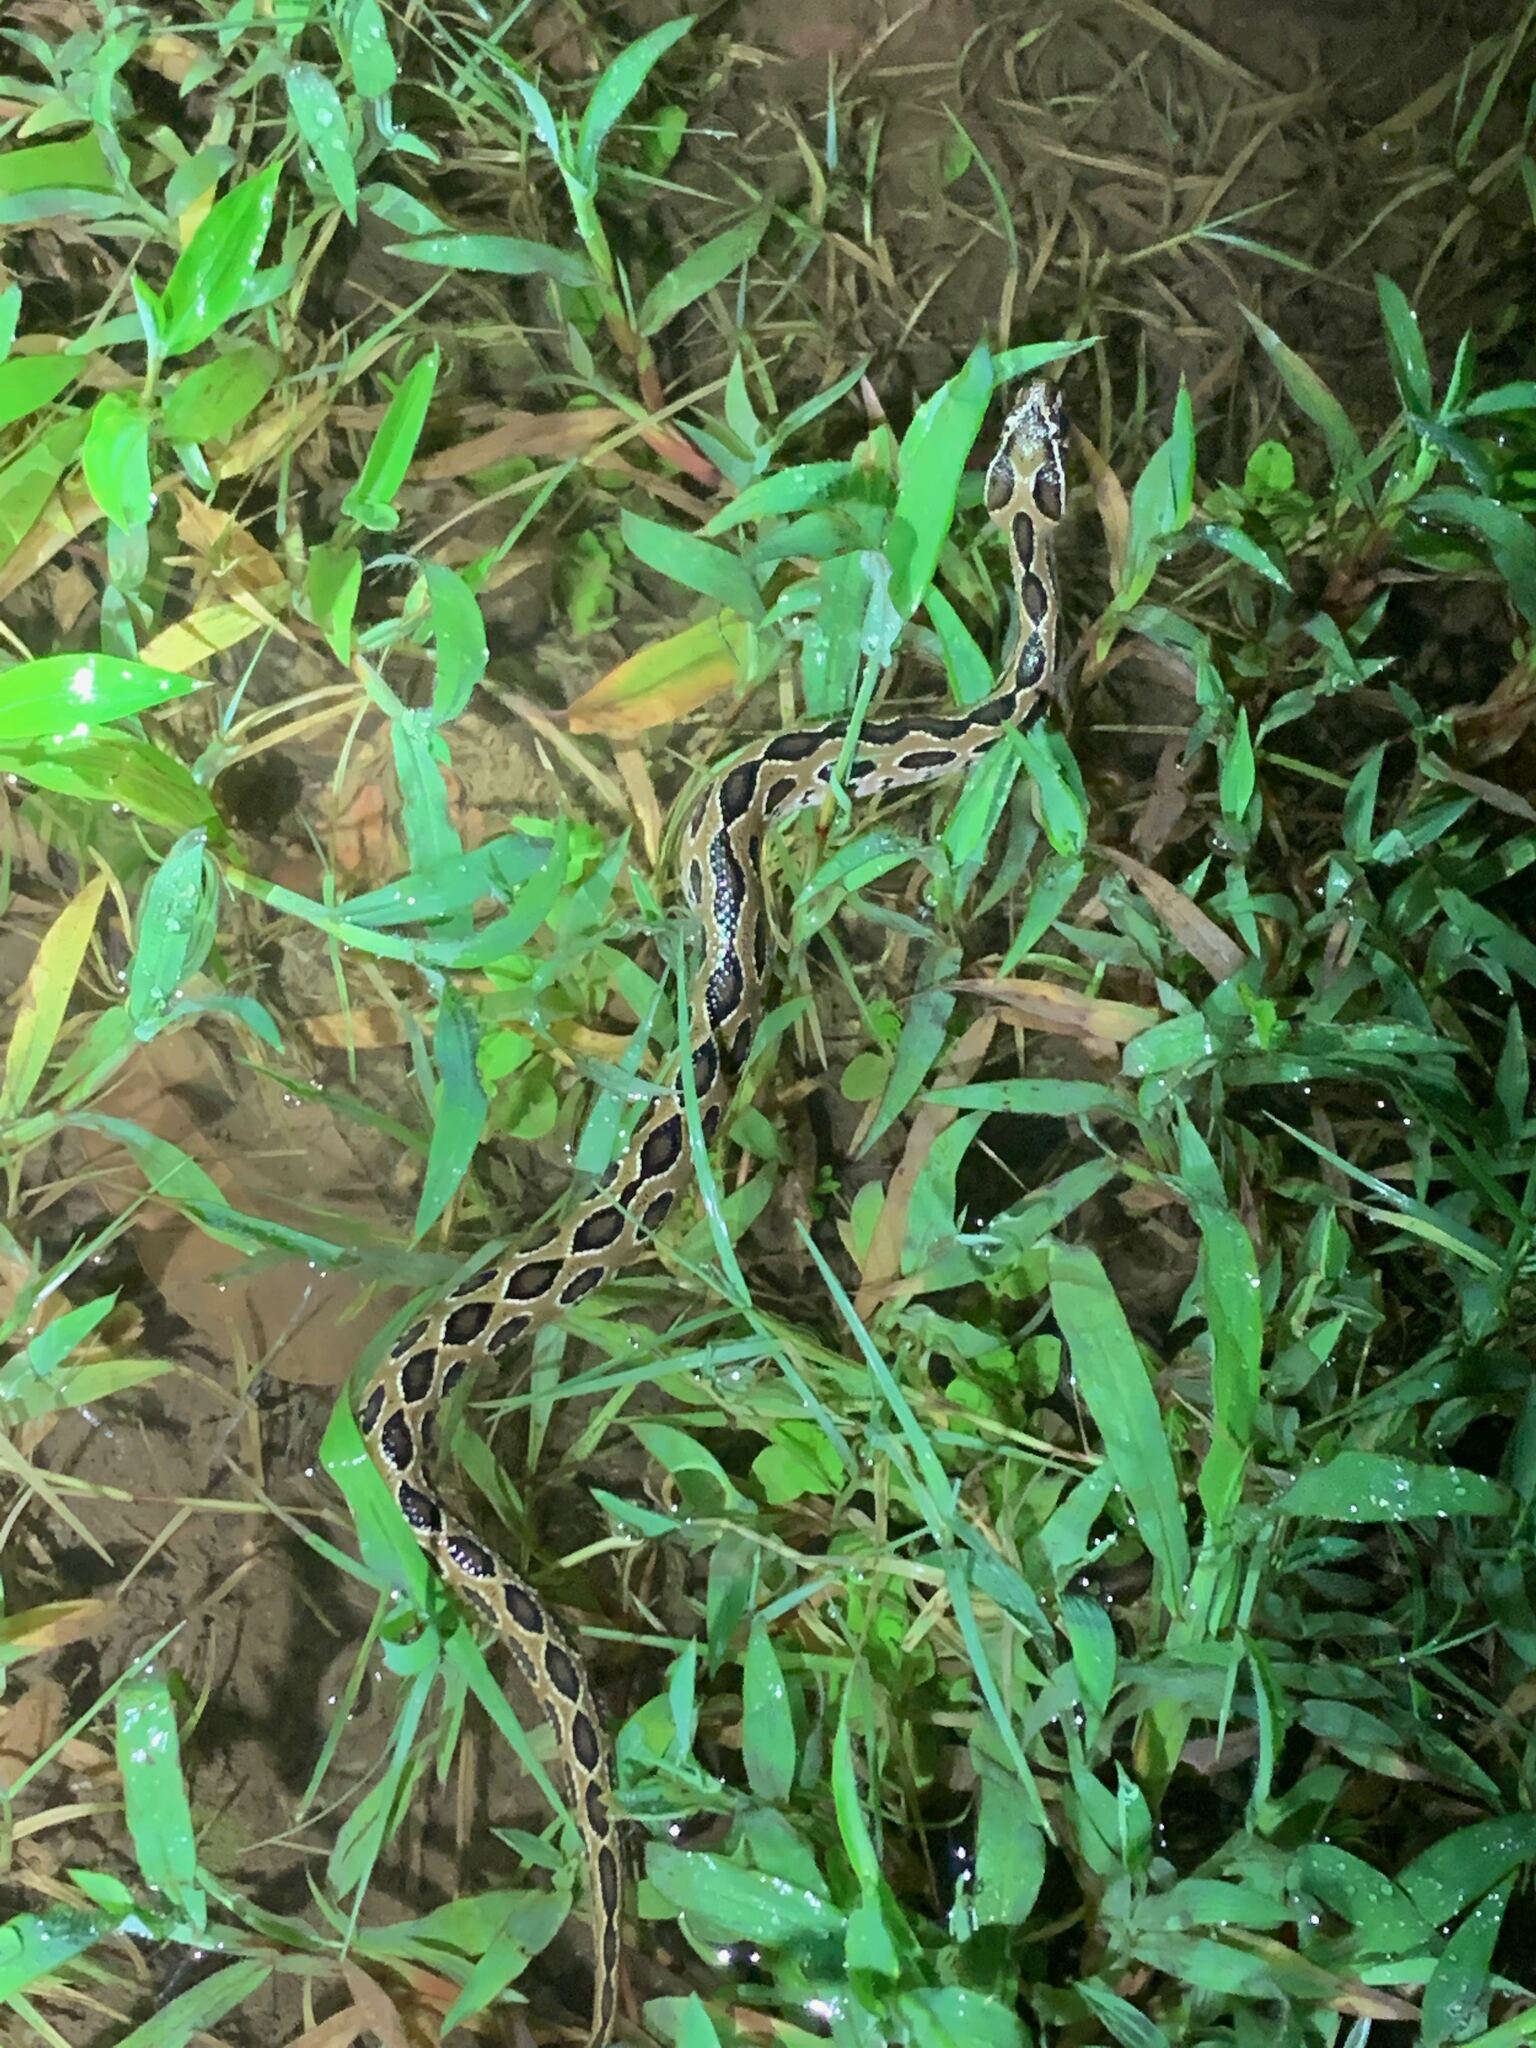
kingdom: Animalia
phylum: Chordata
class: Squamata
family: Viperidae
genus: Daboia
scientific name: Daboia russelii
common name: Western russel’s viper
